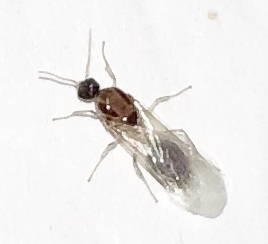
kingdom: Animalia
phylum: Arthropoda
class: Insecta
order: Hymenoptera
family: Formicidae
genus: Pachycondyla
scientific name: Pachycondyla chinensis
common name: Asian needle ant
